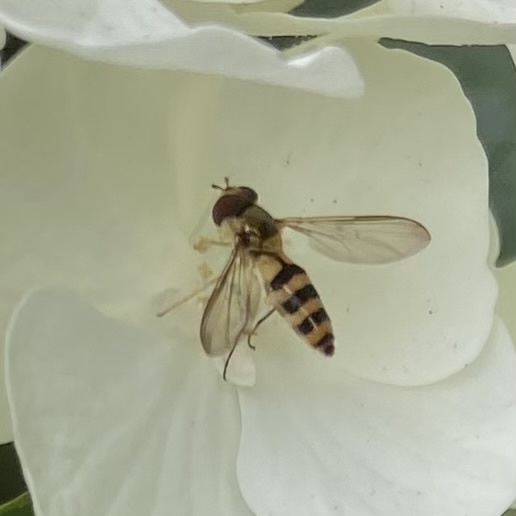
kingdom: Animalia
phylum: Arthropoda
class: Insecta
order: Diptera
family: Syrphidae
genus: Meliscaeva
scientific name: Meliscaeva cinctella
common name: American thintail fly
